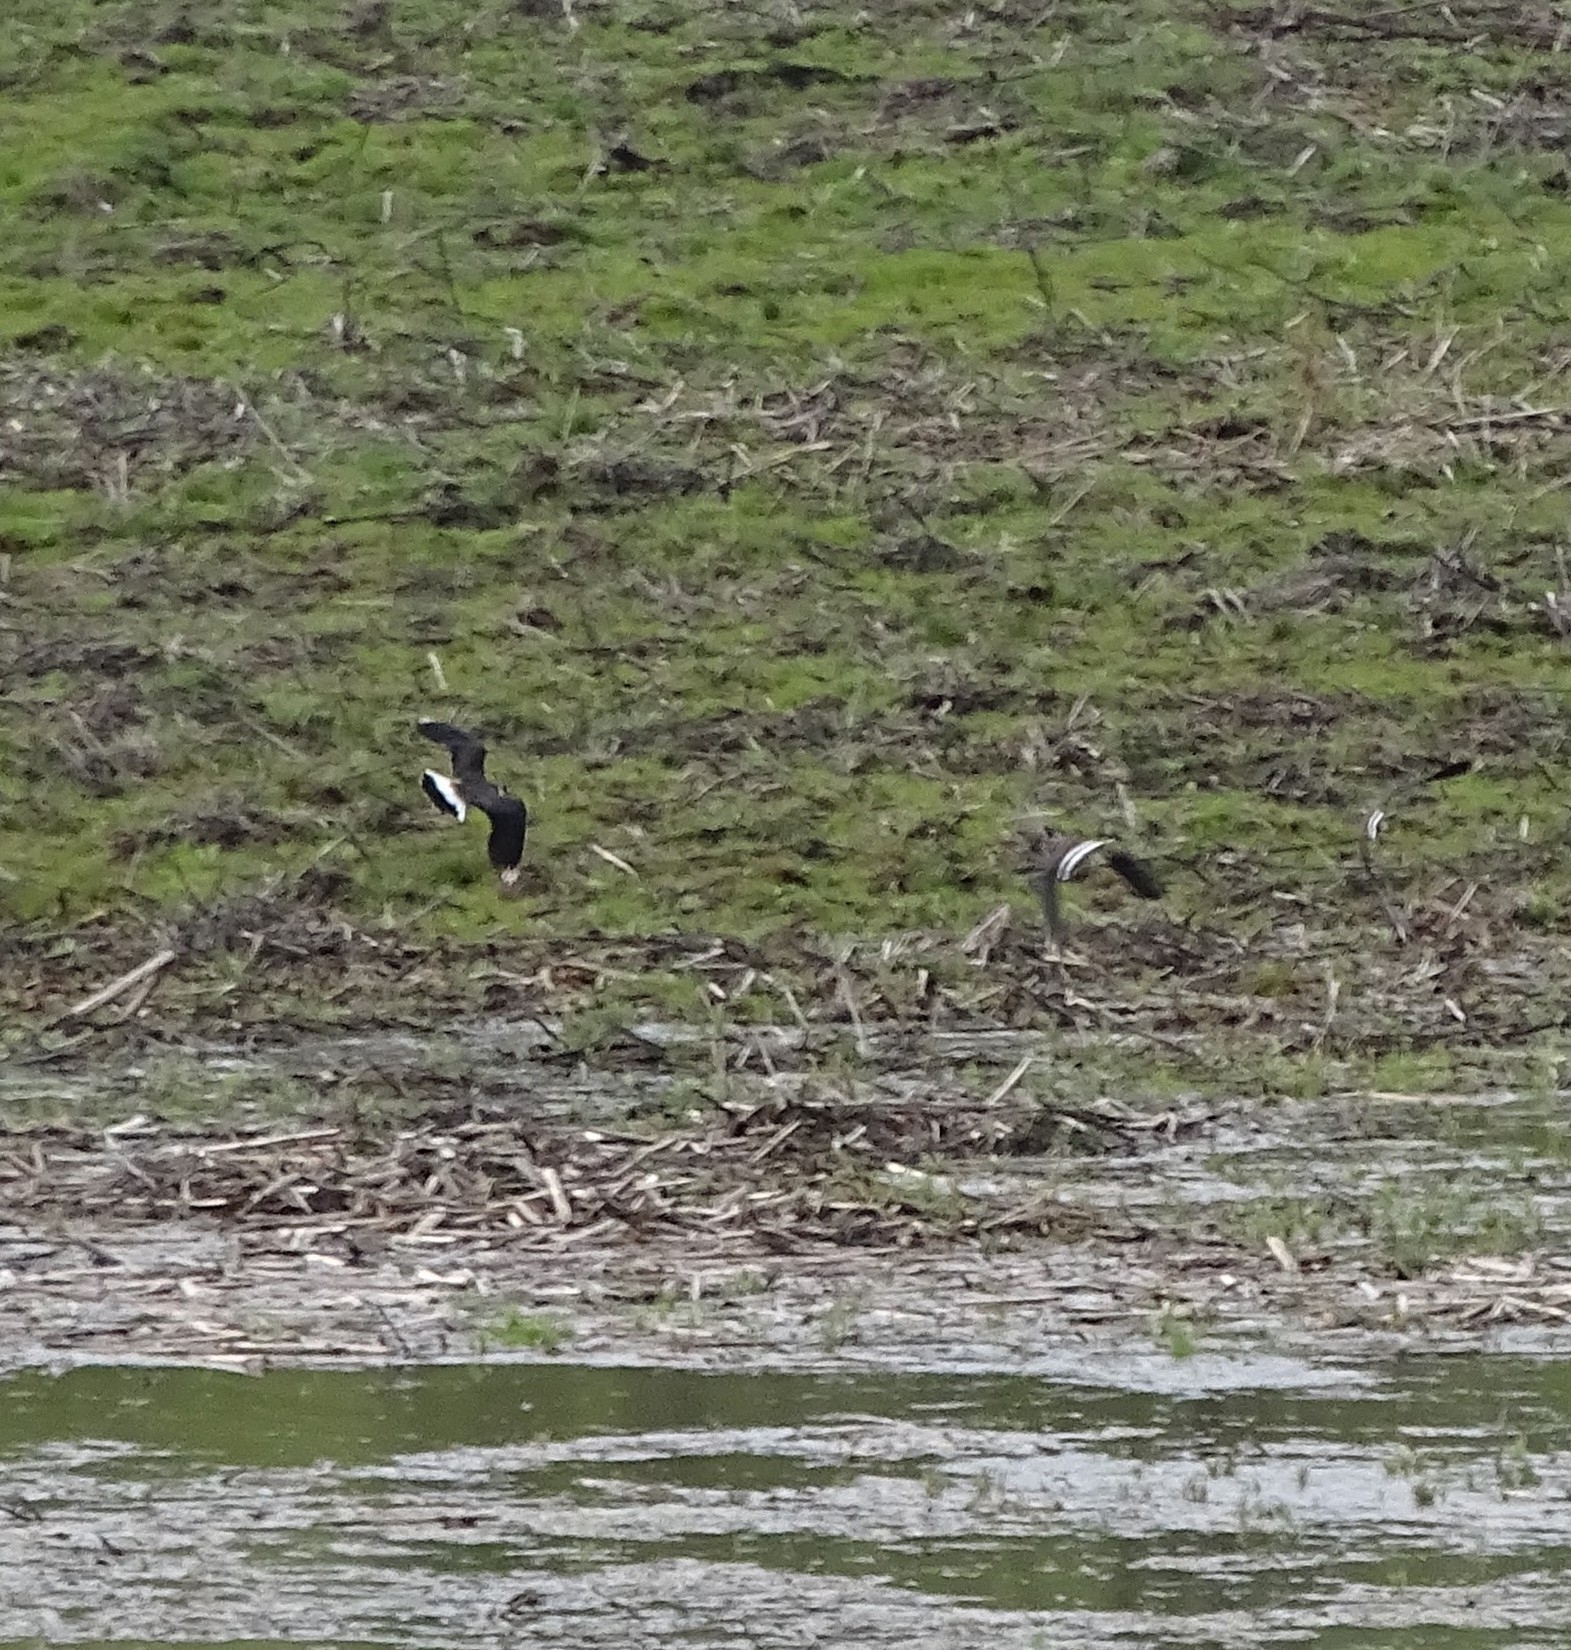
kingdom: Animalia
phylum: Chordata
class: Aves
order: Charadriiformes
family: Charadriidae
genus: Vanellus
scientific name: Vanellus vanellus
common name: Northern lapwing
